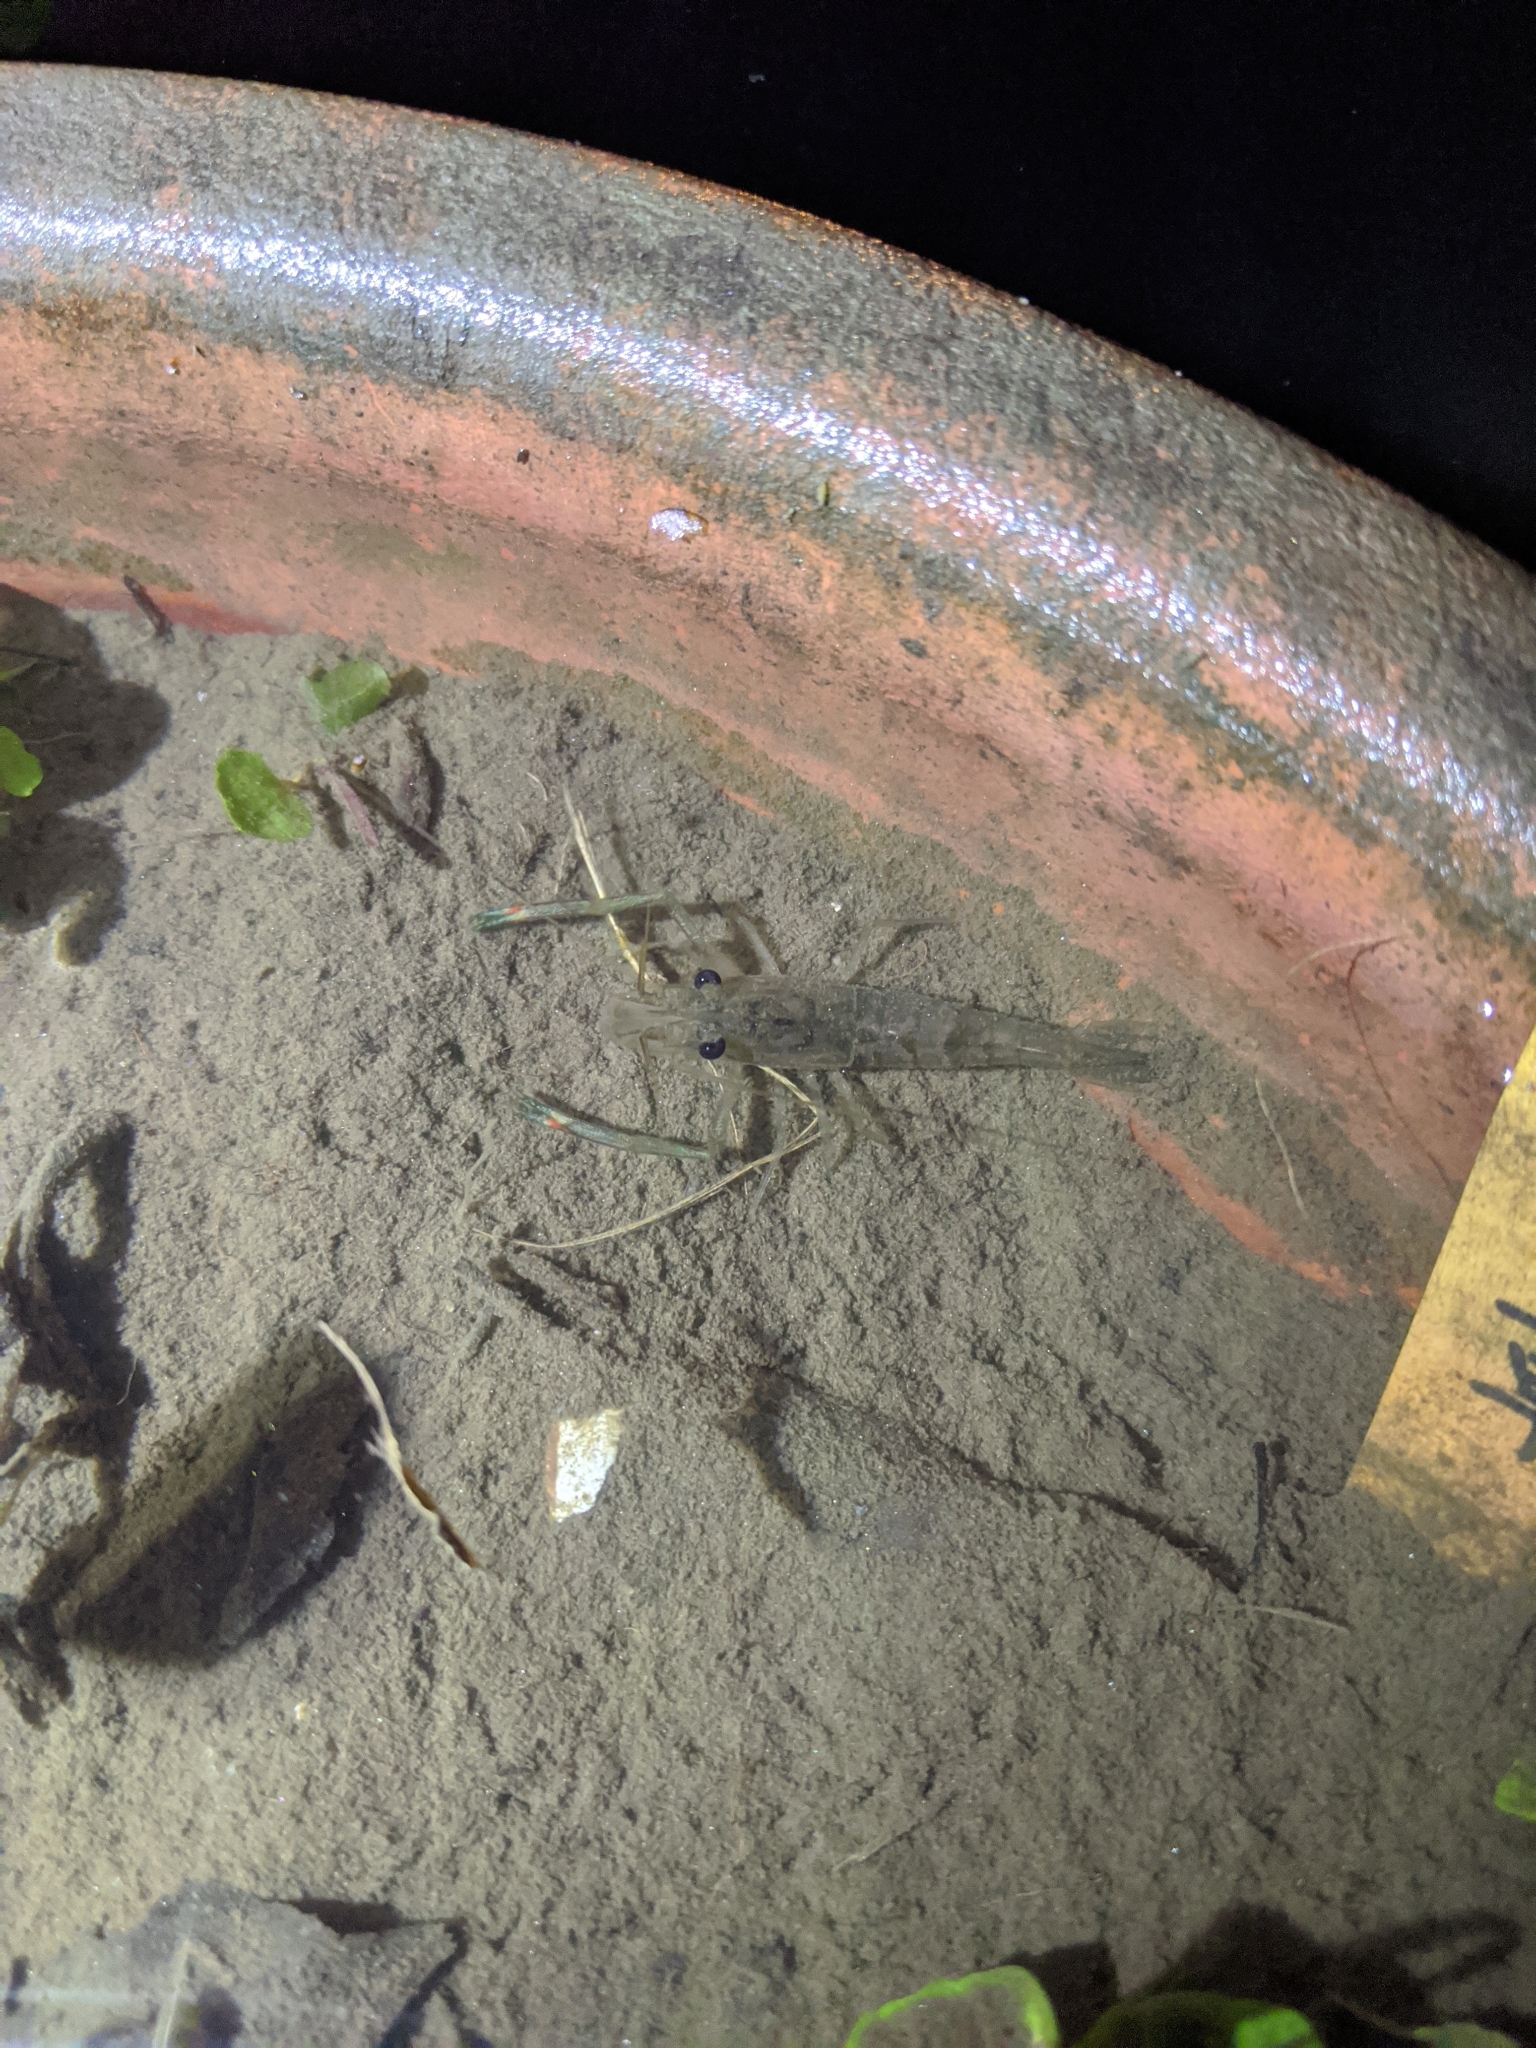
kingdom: Animalia
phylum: Arthropoda
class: Malacostraca
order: Decapoda
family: Palaemonidae
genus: Macrobrachium
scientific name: Macrobrachium asperulum
